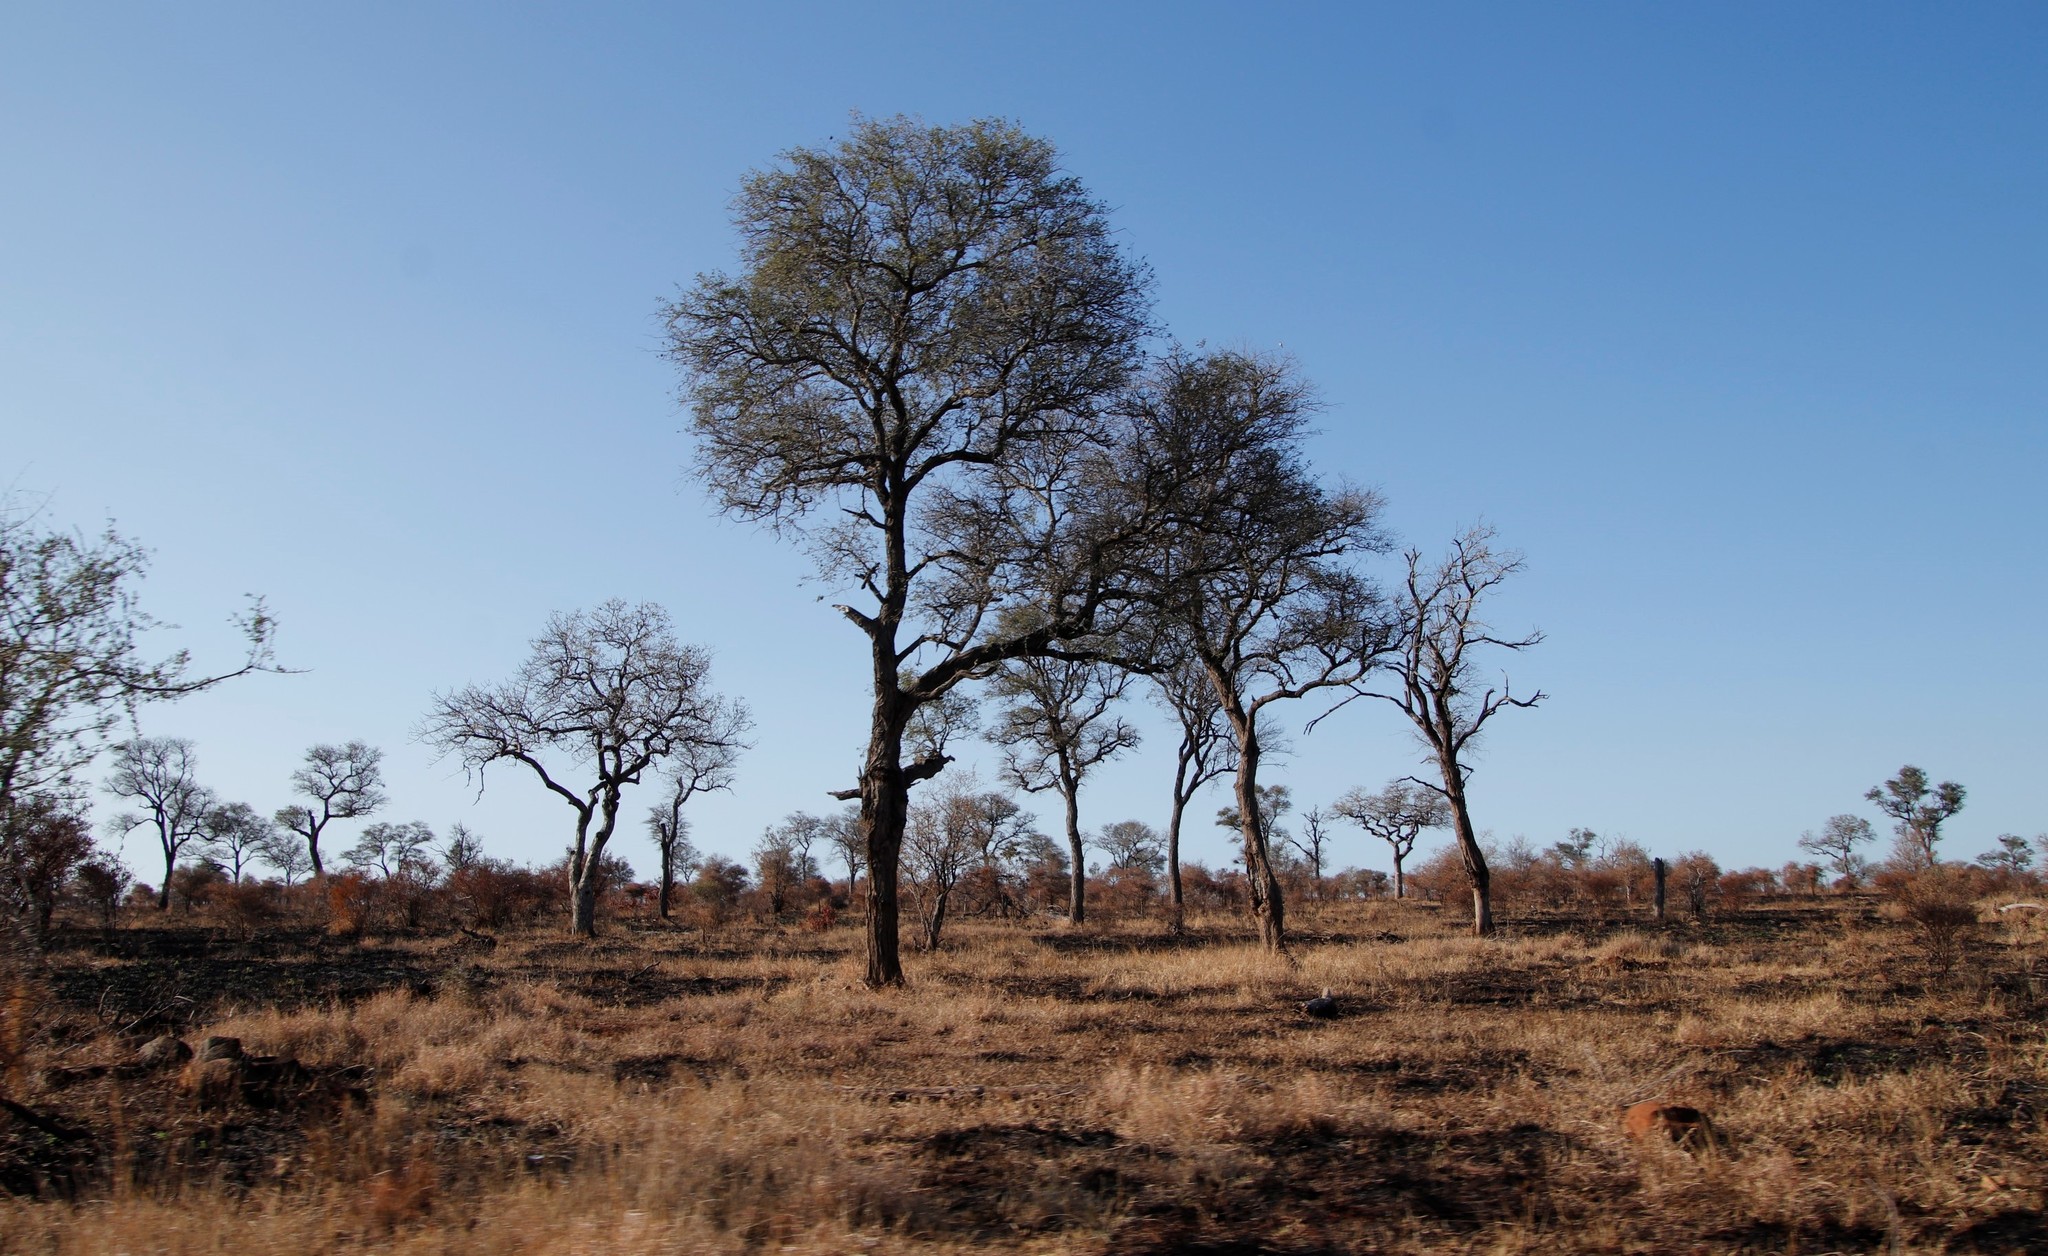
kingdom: Plantae
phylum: Tracheophyta
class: Magnoliopsida
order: Fabales
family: Fabaceae
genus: Senegalia
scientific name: Senegalia nigrescens
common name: Knobthorn
